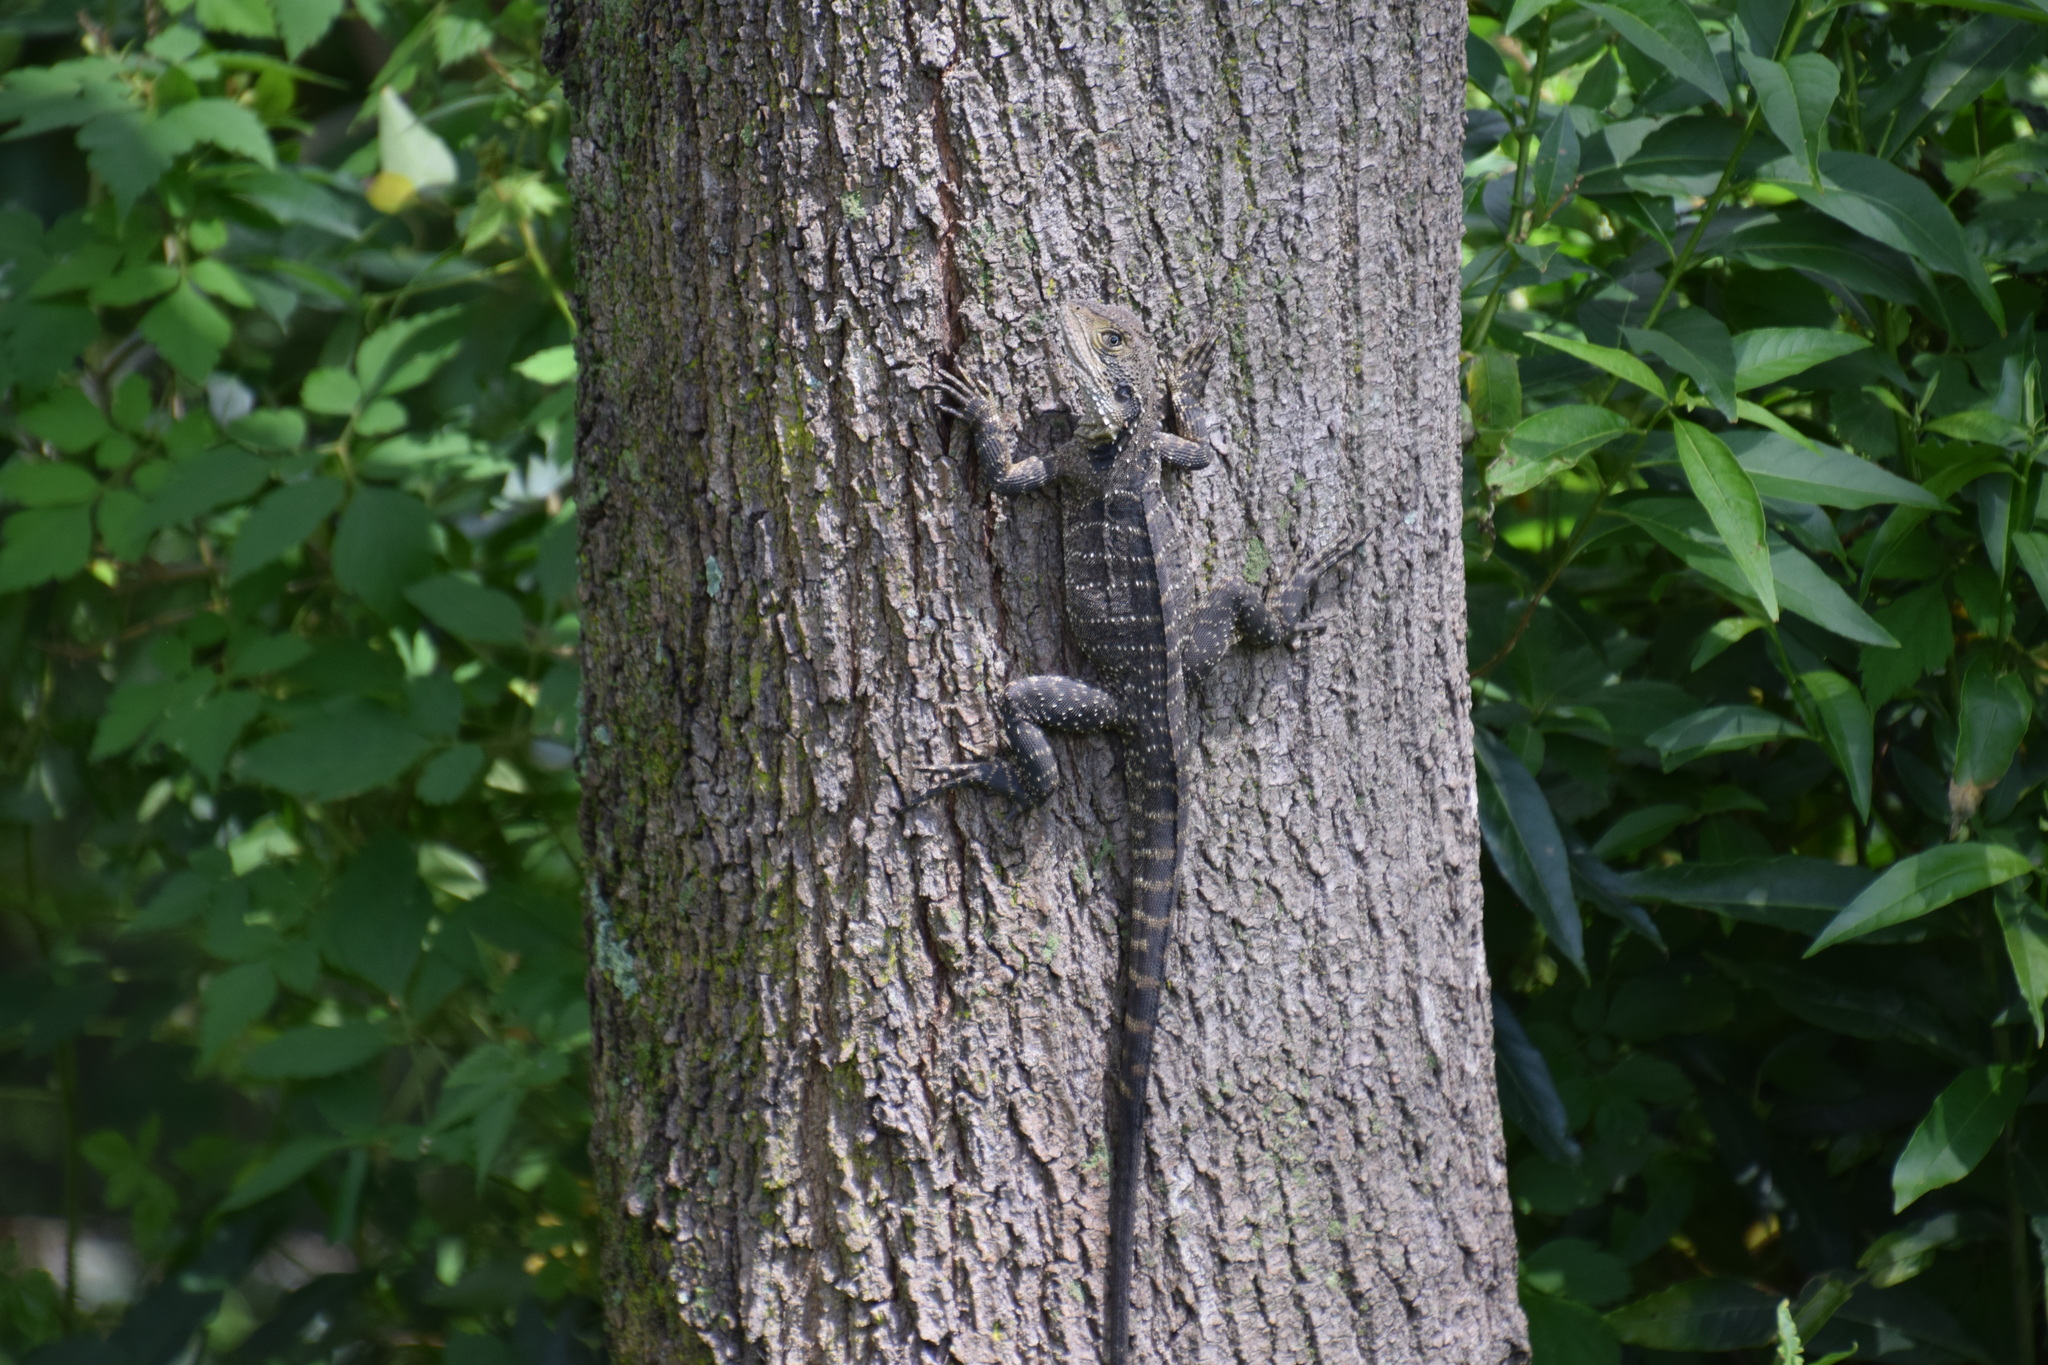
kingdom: Animalia
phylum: Chordata
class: Squamata
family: Agamidae
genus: Intellagama
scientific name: Intellagama lesueurii
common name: Eastern water dragon
